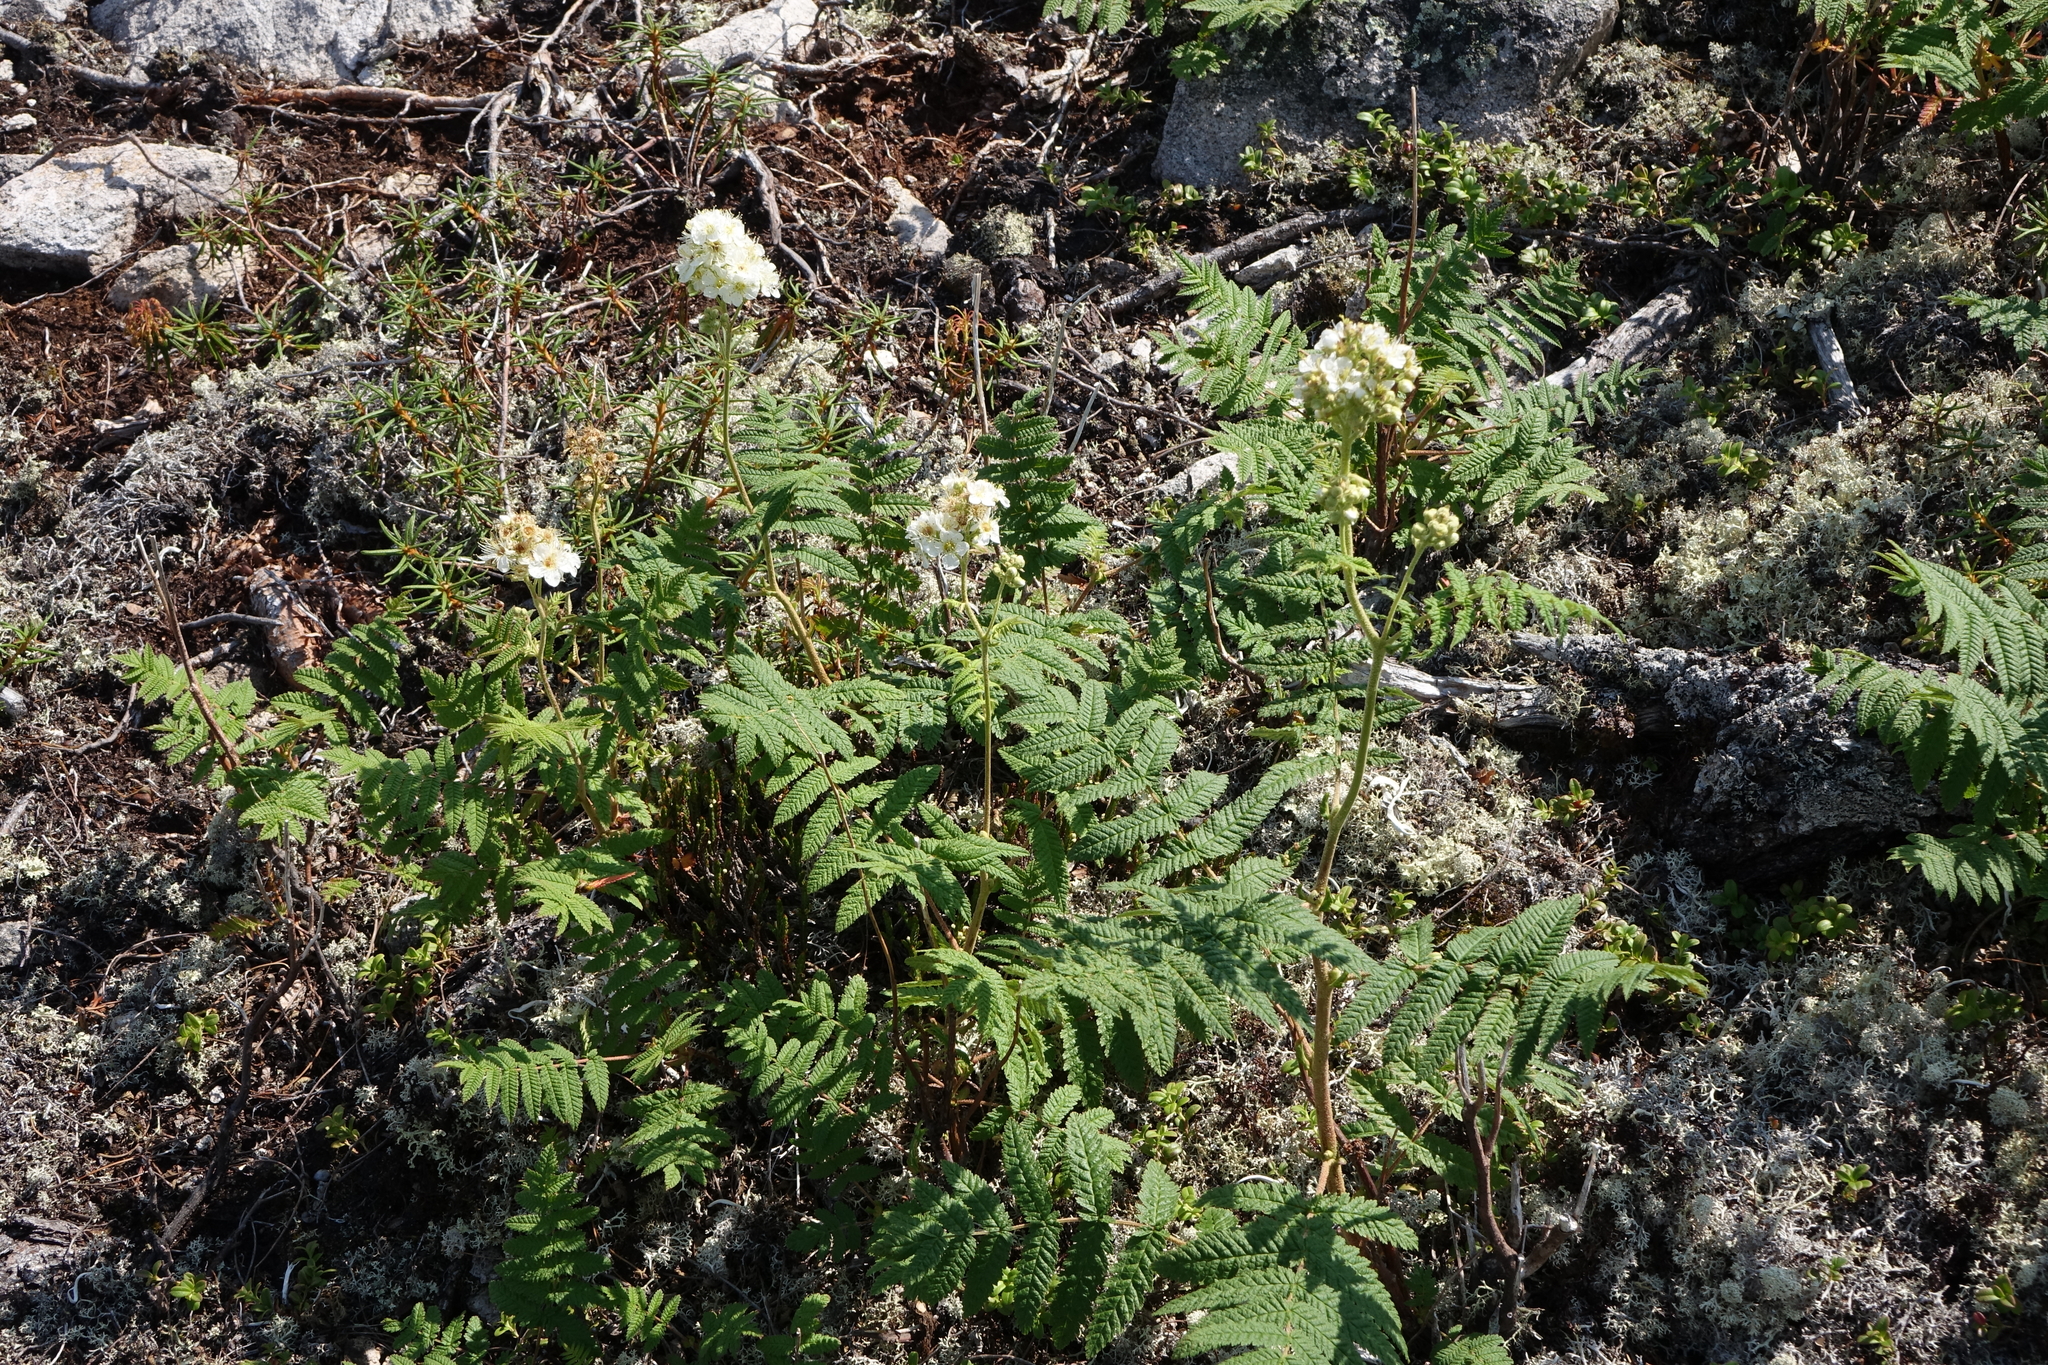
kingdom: Plantae
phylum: Tracheophyta
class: Magnoliopsida
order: Rosales
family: Rosaceae
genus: Sorbaria
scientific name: Sorbaria pallasii
